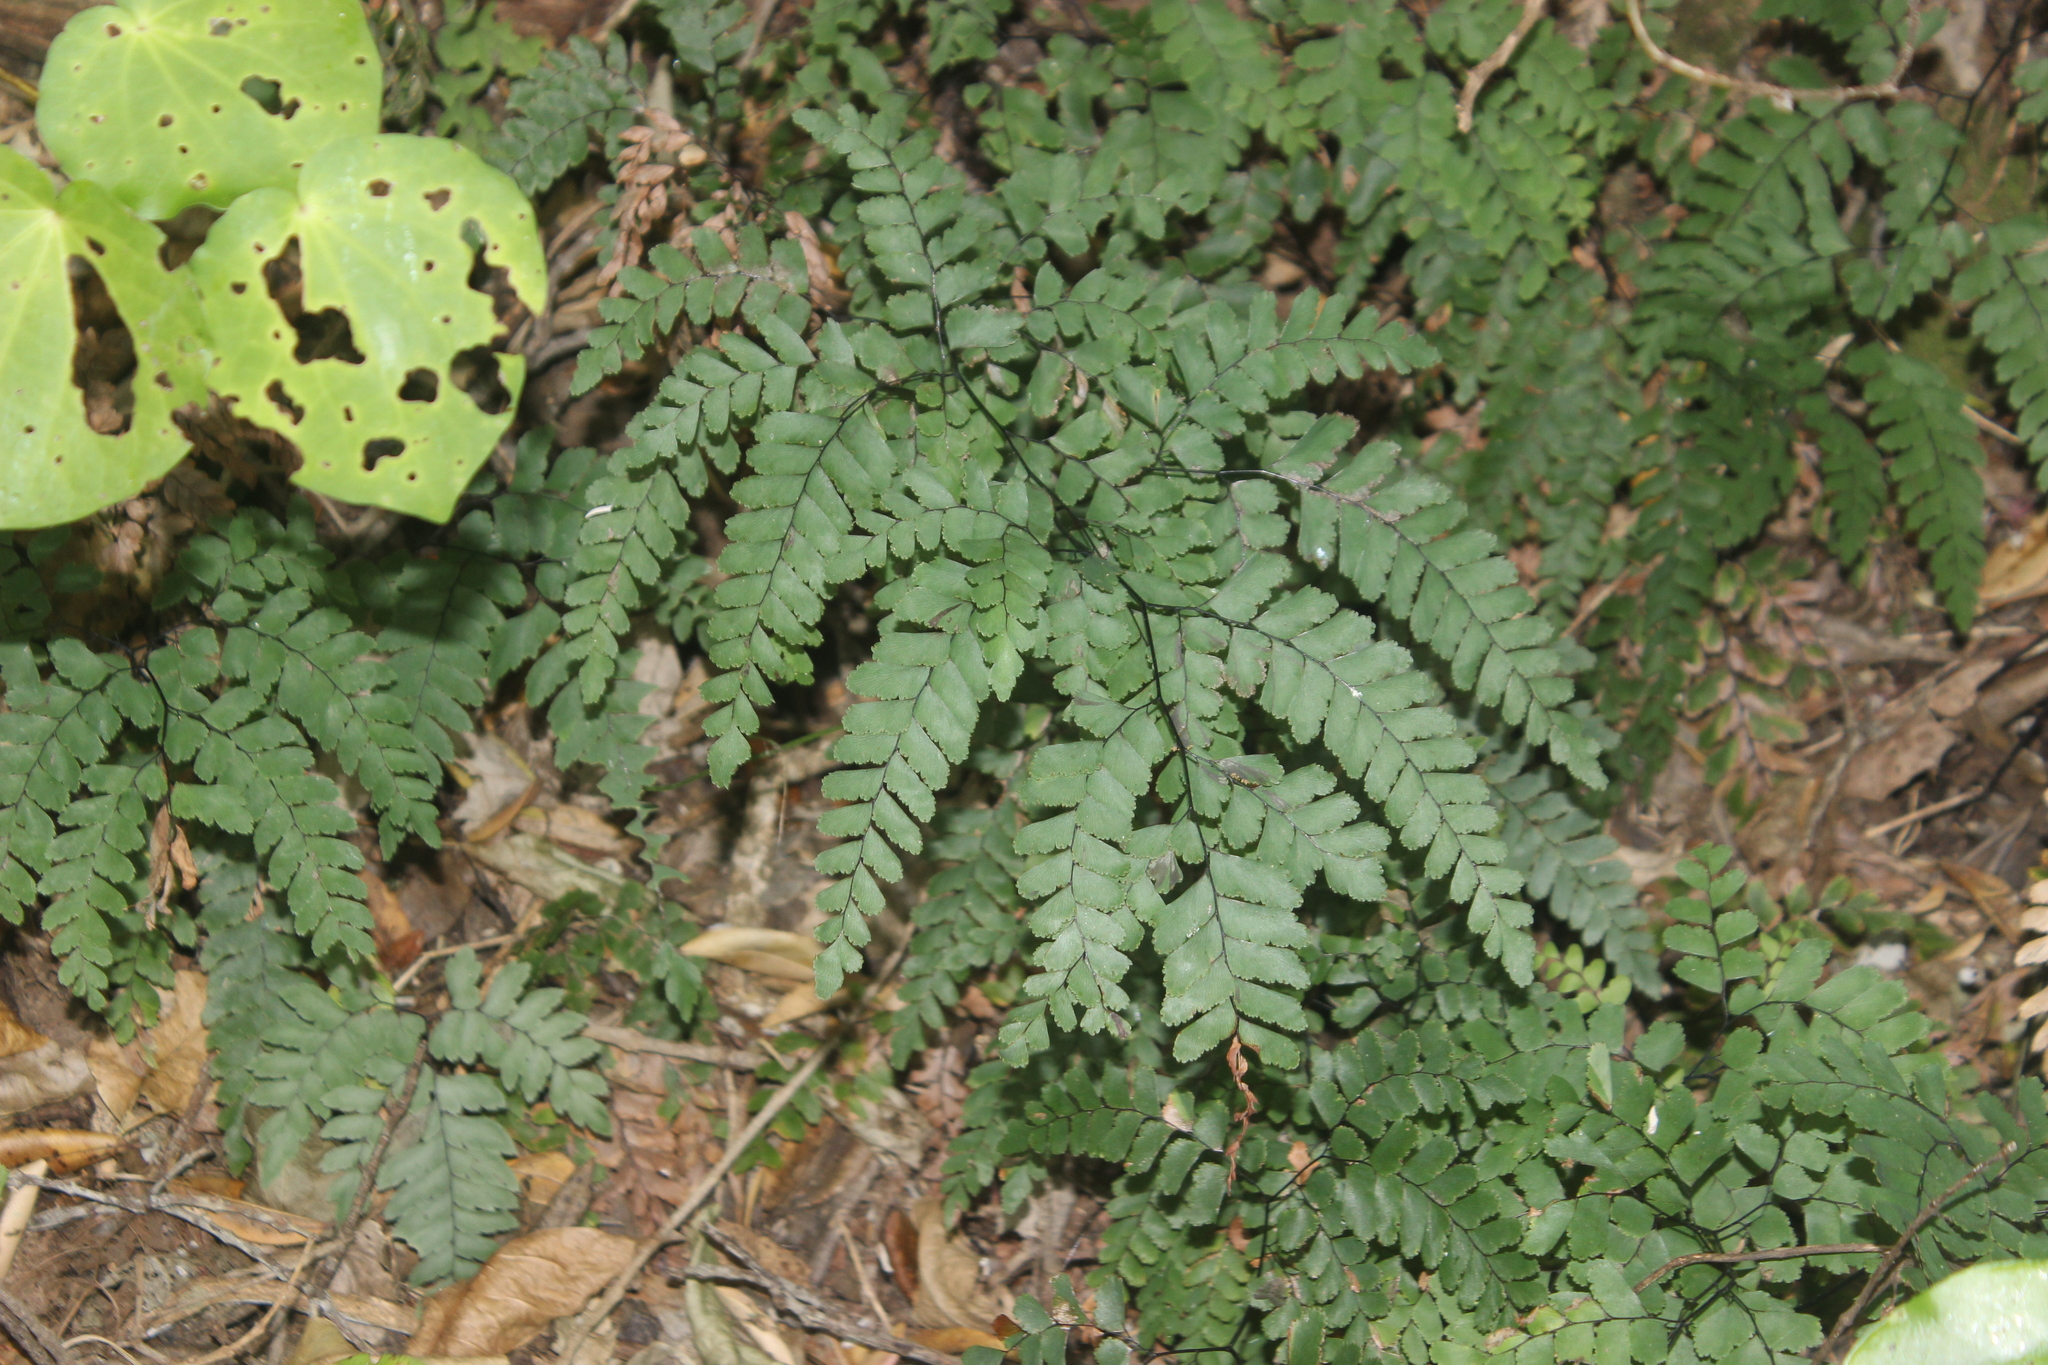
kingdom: Plantae
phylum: Tracheophyta
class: Polypodiopsida
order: Polypodiales
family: Pteridaceae
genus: Adiantum
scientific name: Adiantum cunninghamii
